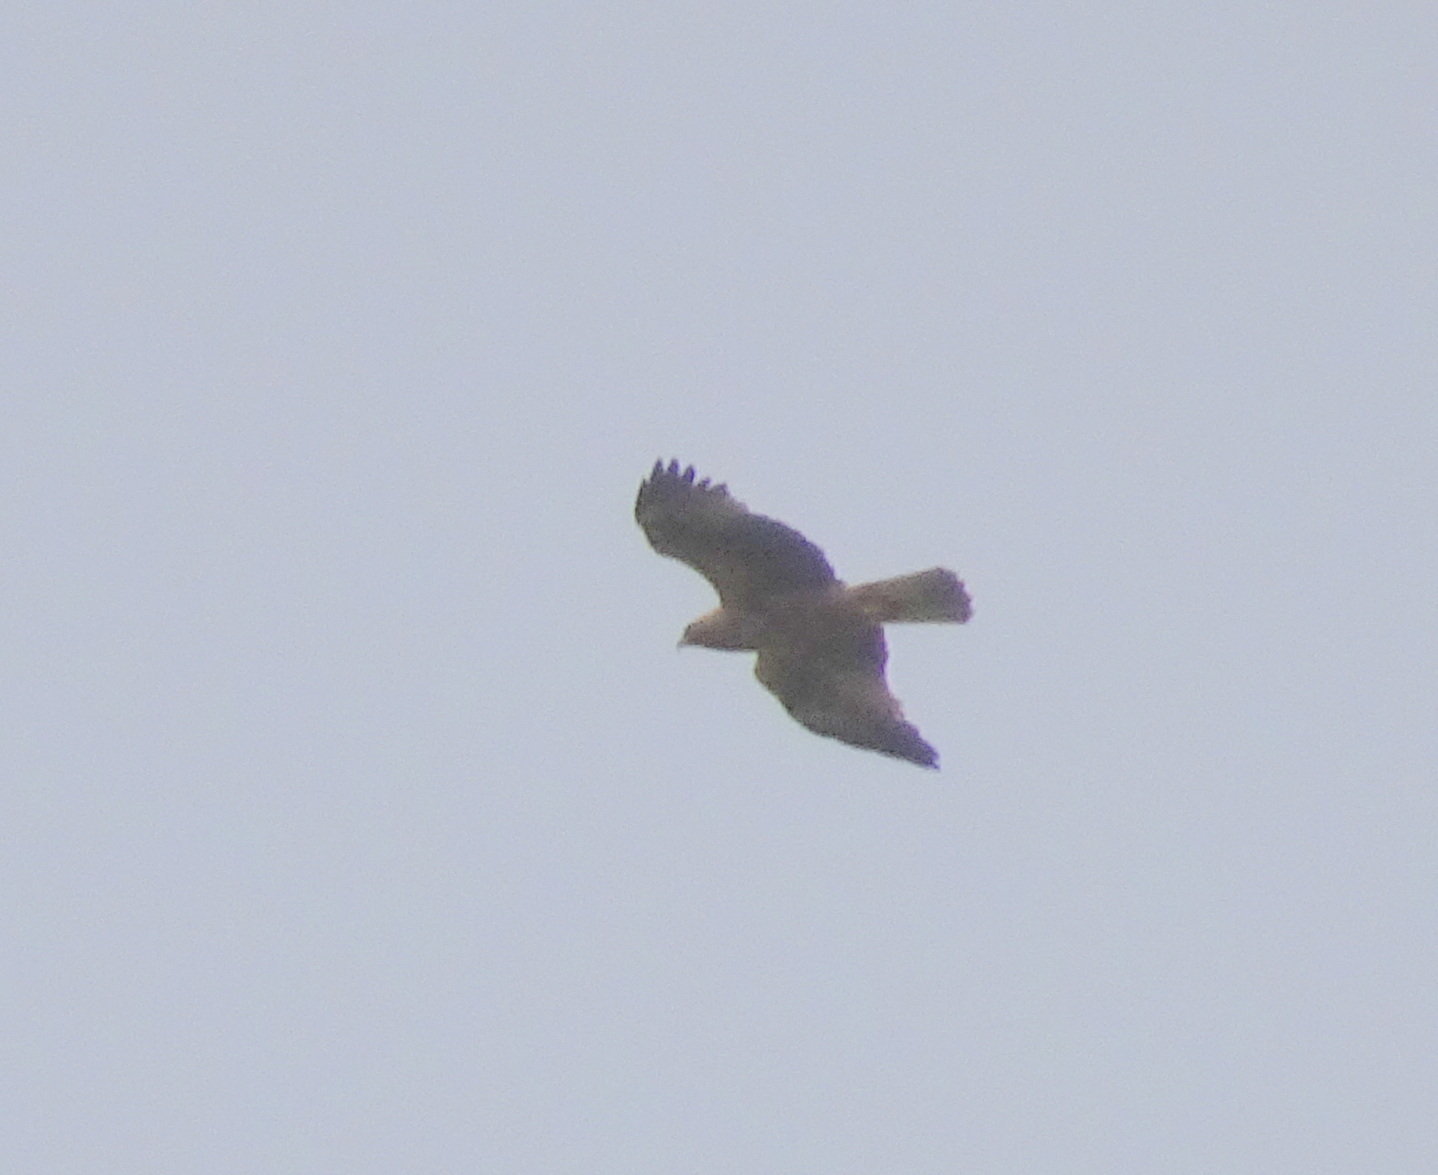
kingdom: Animalia
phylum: Chordata
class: Aves
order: Accipitriformes
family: Accipitridae
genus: Hieraaetus
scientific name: Hieraaetus pennatus
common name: Booted eagle
